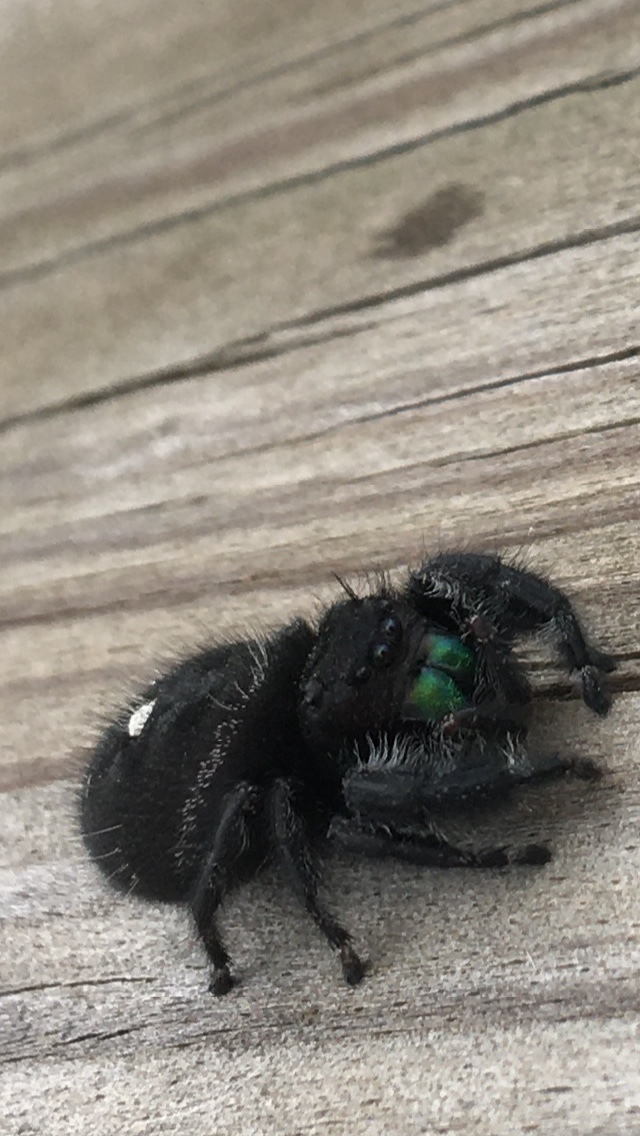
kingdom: Animalia
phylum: Arthropoda
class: Arachnida
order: Araneae
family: Salticidae
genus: Phidippus
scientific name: Phidippus audax
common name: Bold jumper
